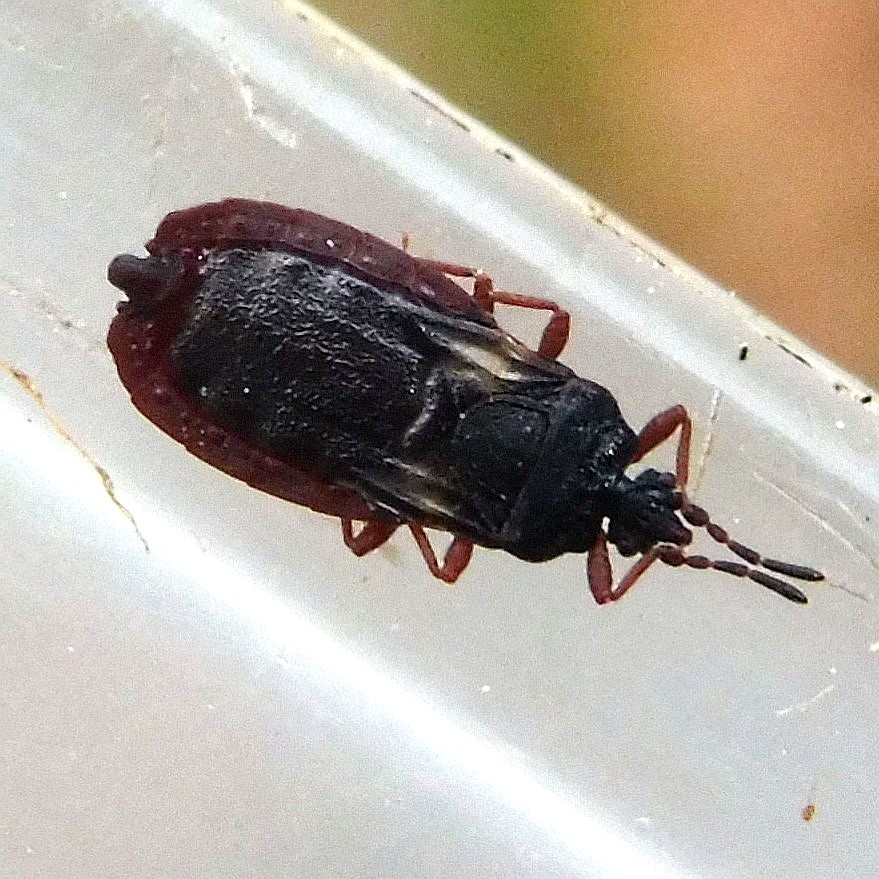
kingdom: Animalia
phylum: Arthropoda
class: Insecta
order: Hemiptera
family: Aradidae
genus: Aneurus
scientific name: Aneurus avenius
